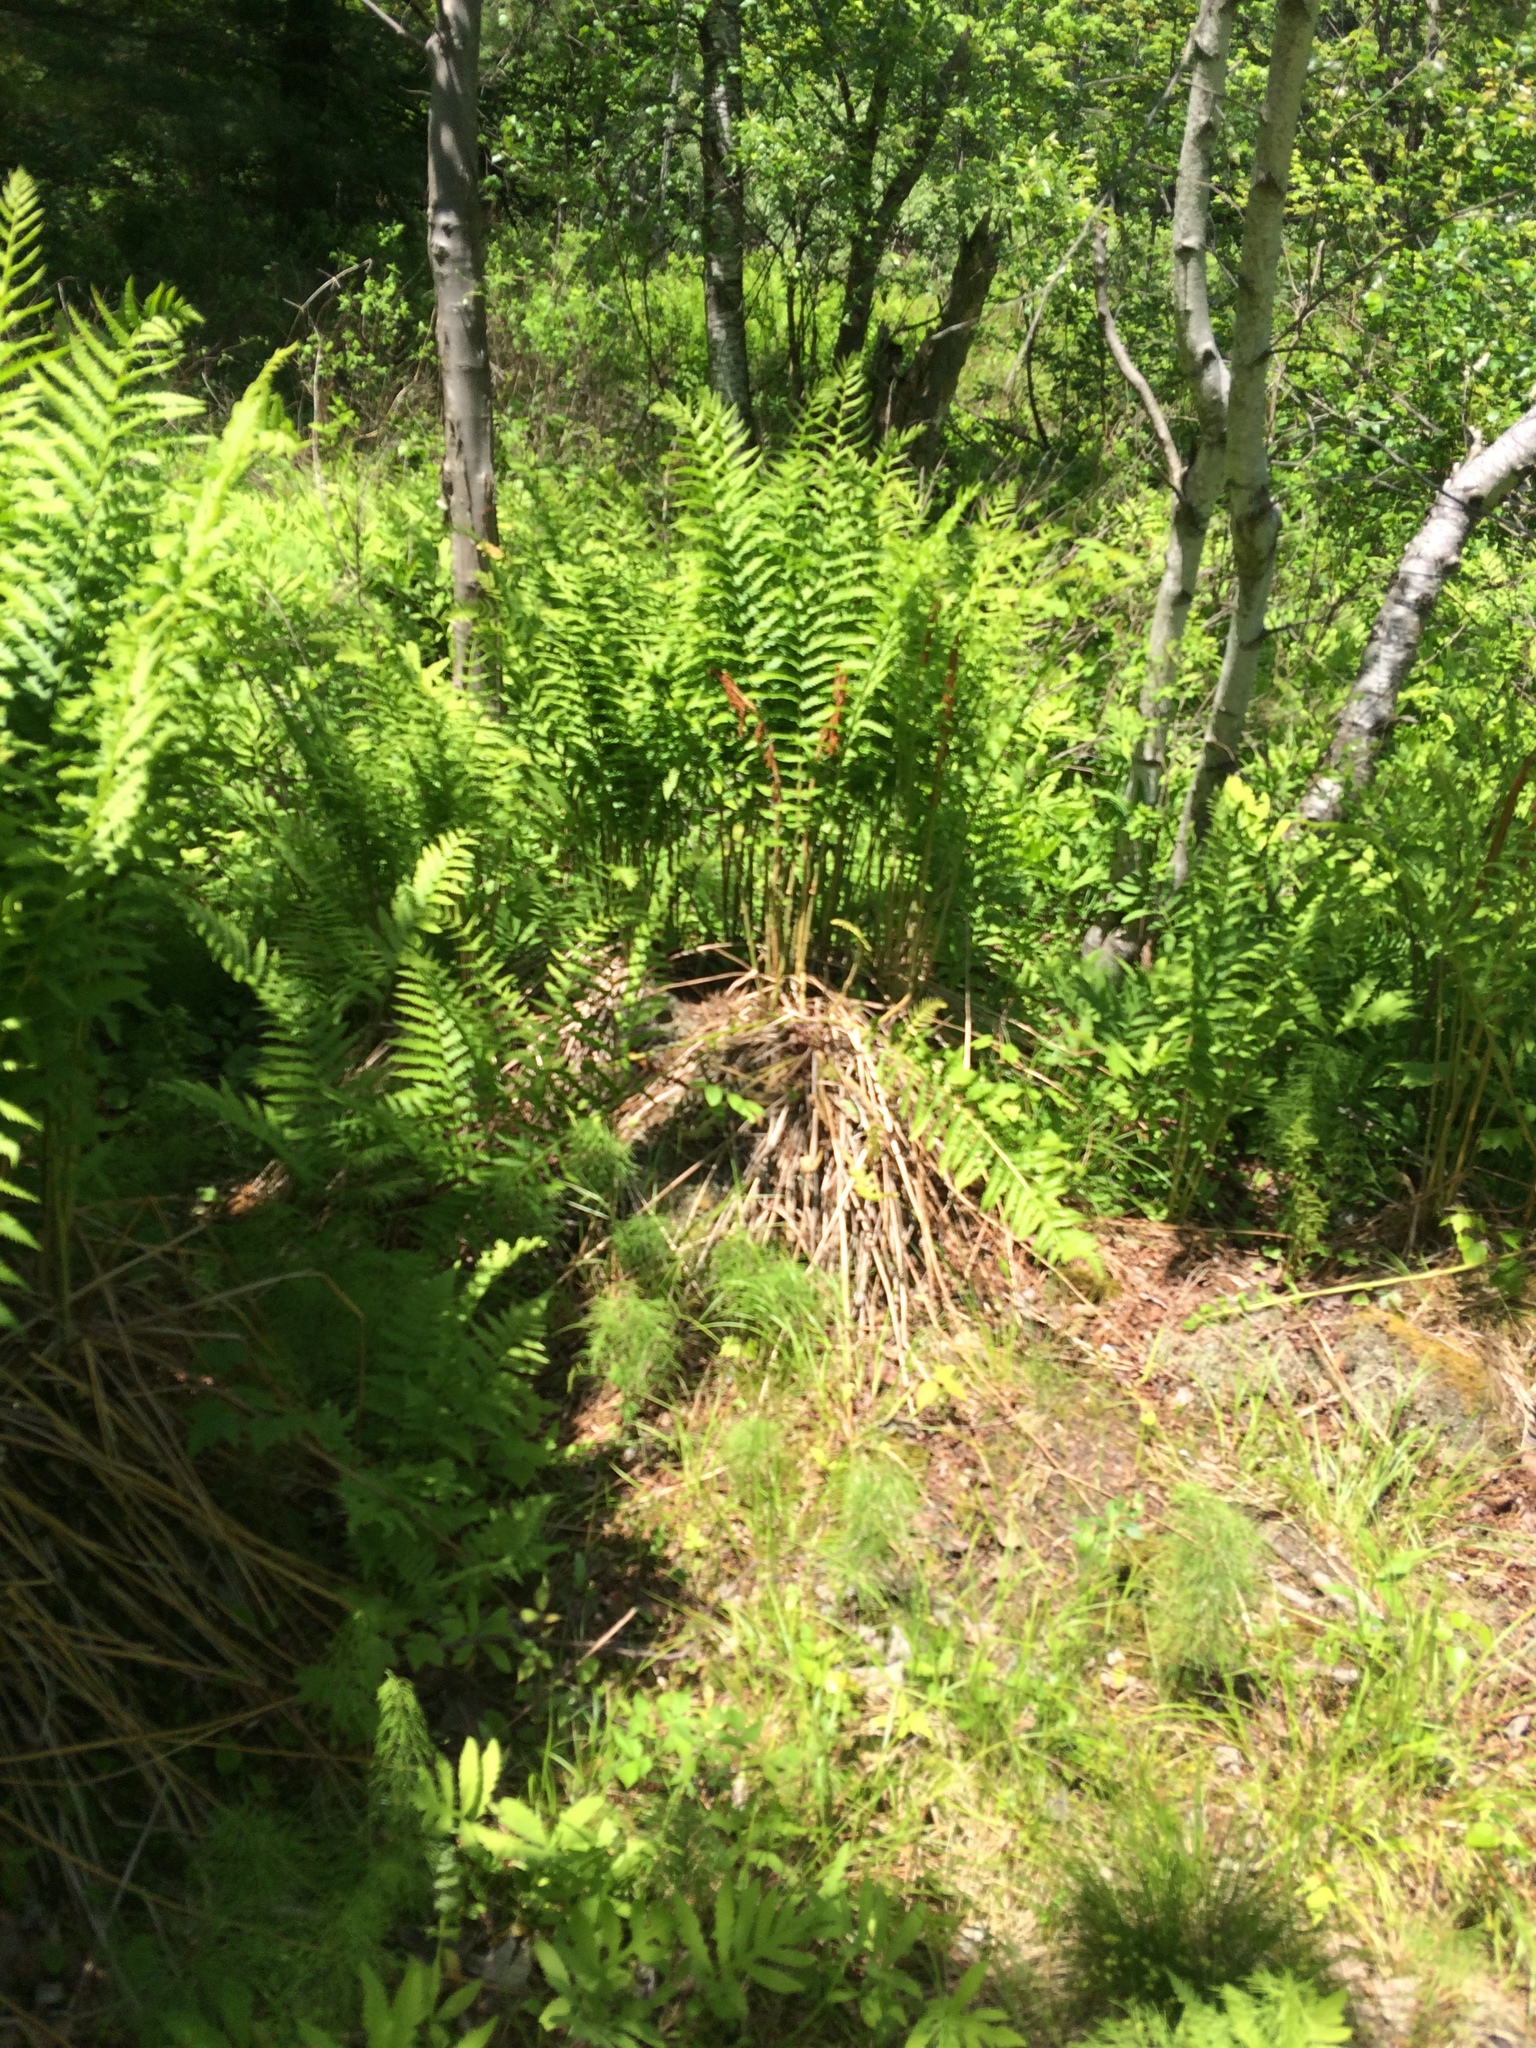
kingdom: Plantae
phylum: Tracheophyta
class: Polypodiopsida
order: Osmundales
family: Osmundaceae
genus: Osmundastrum
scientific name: Osmundastrum cinnamomeum
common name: Cinnamon fern
